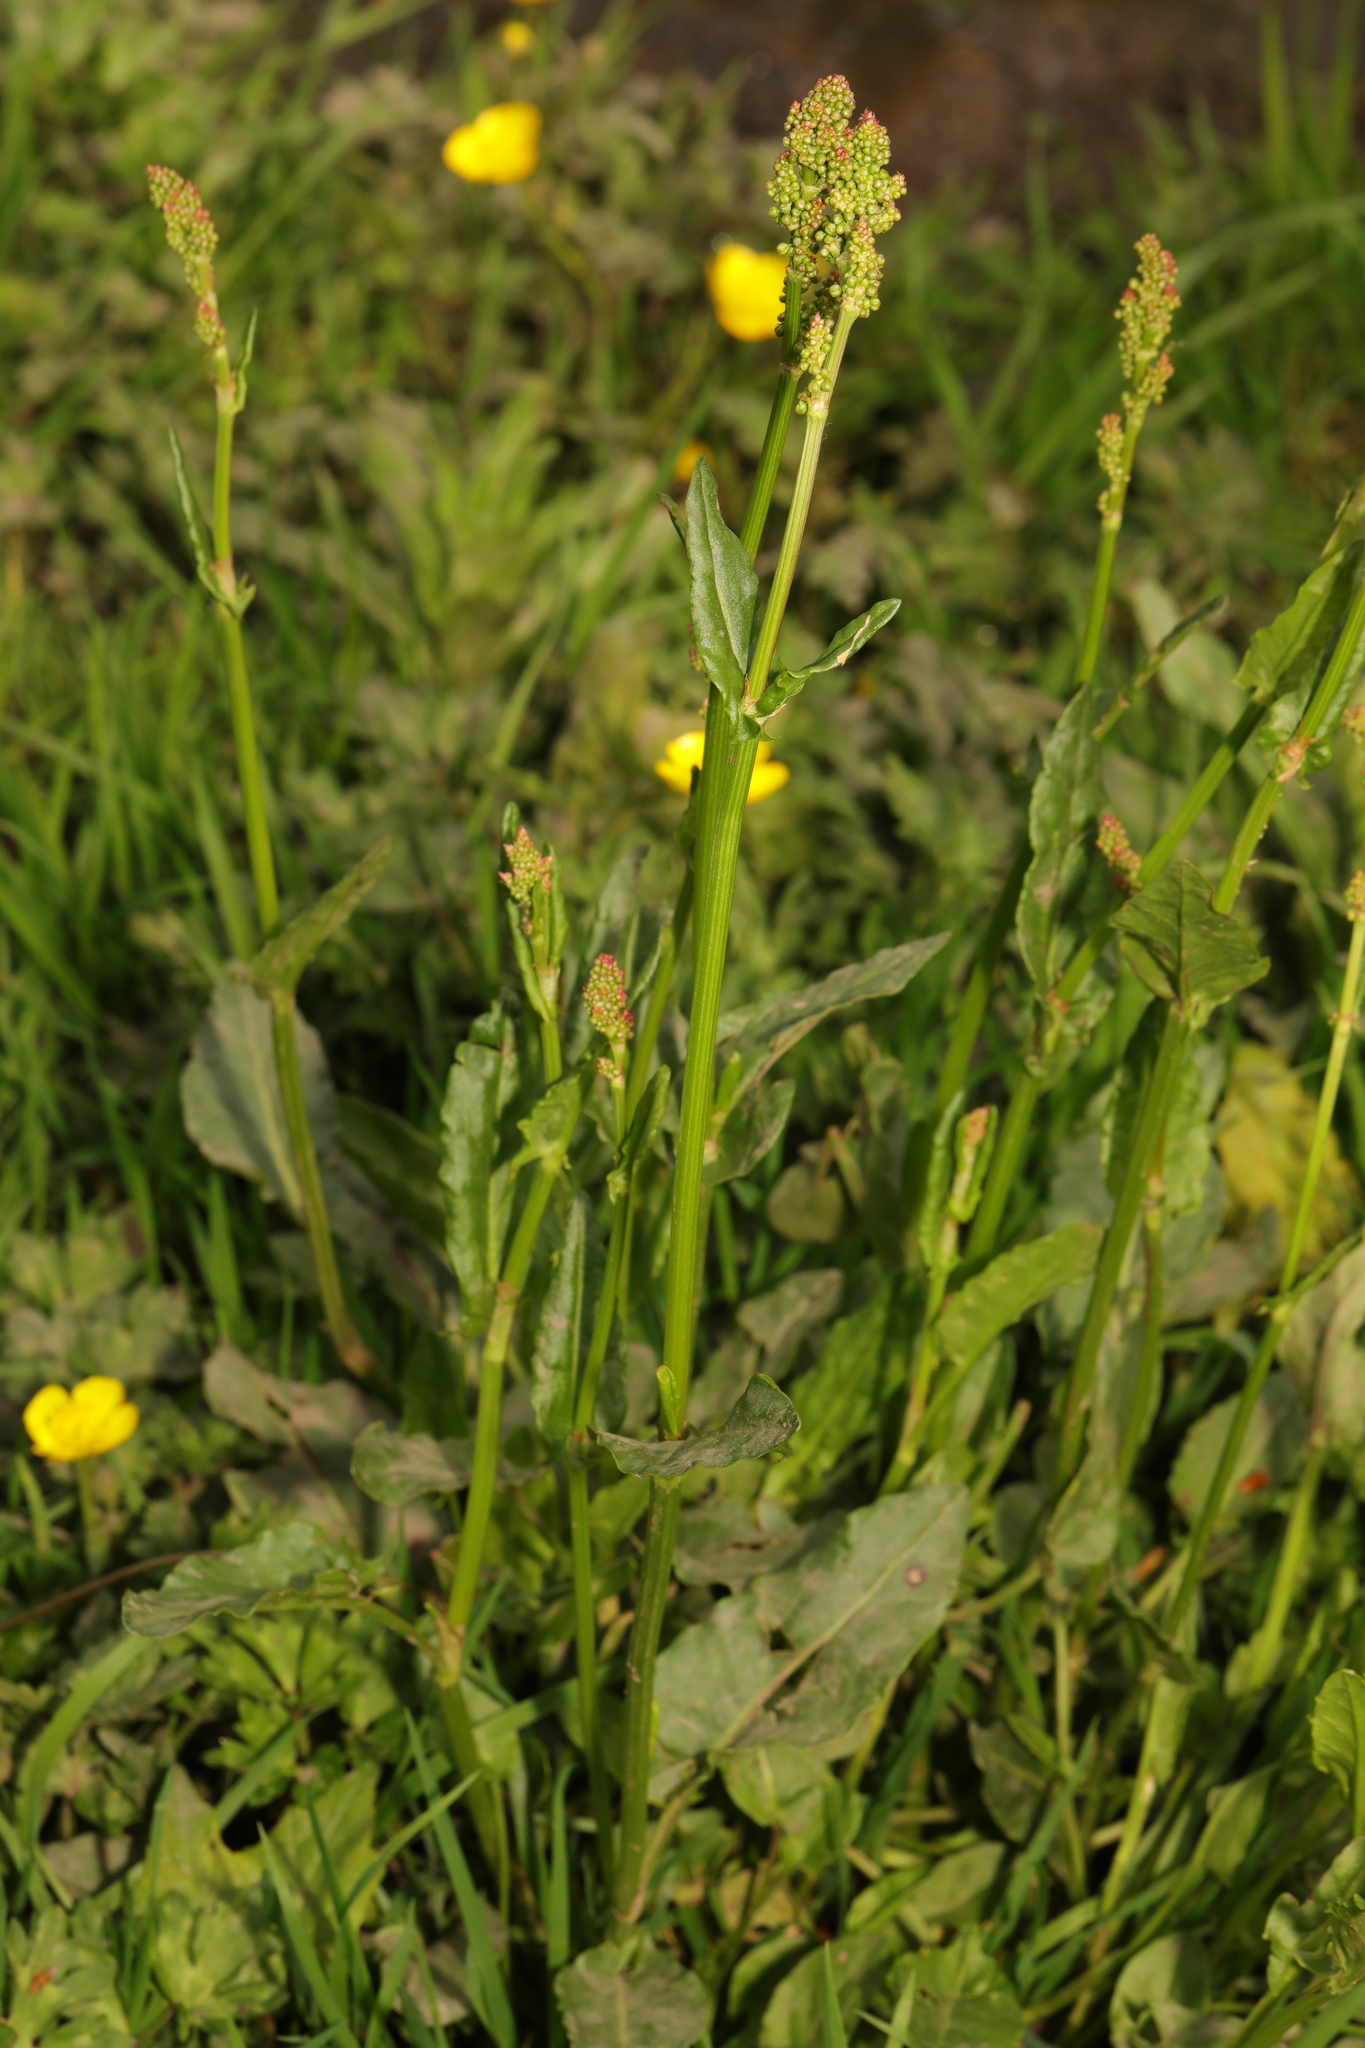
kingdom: Plantae
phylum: Tracheophyta
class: Magnoliopsida
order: Caryophyllales
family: Polygonaceae
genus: Rumex
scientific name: Rumex acetosa
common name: Garden sorrel
